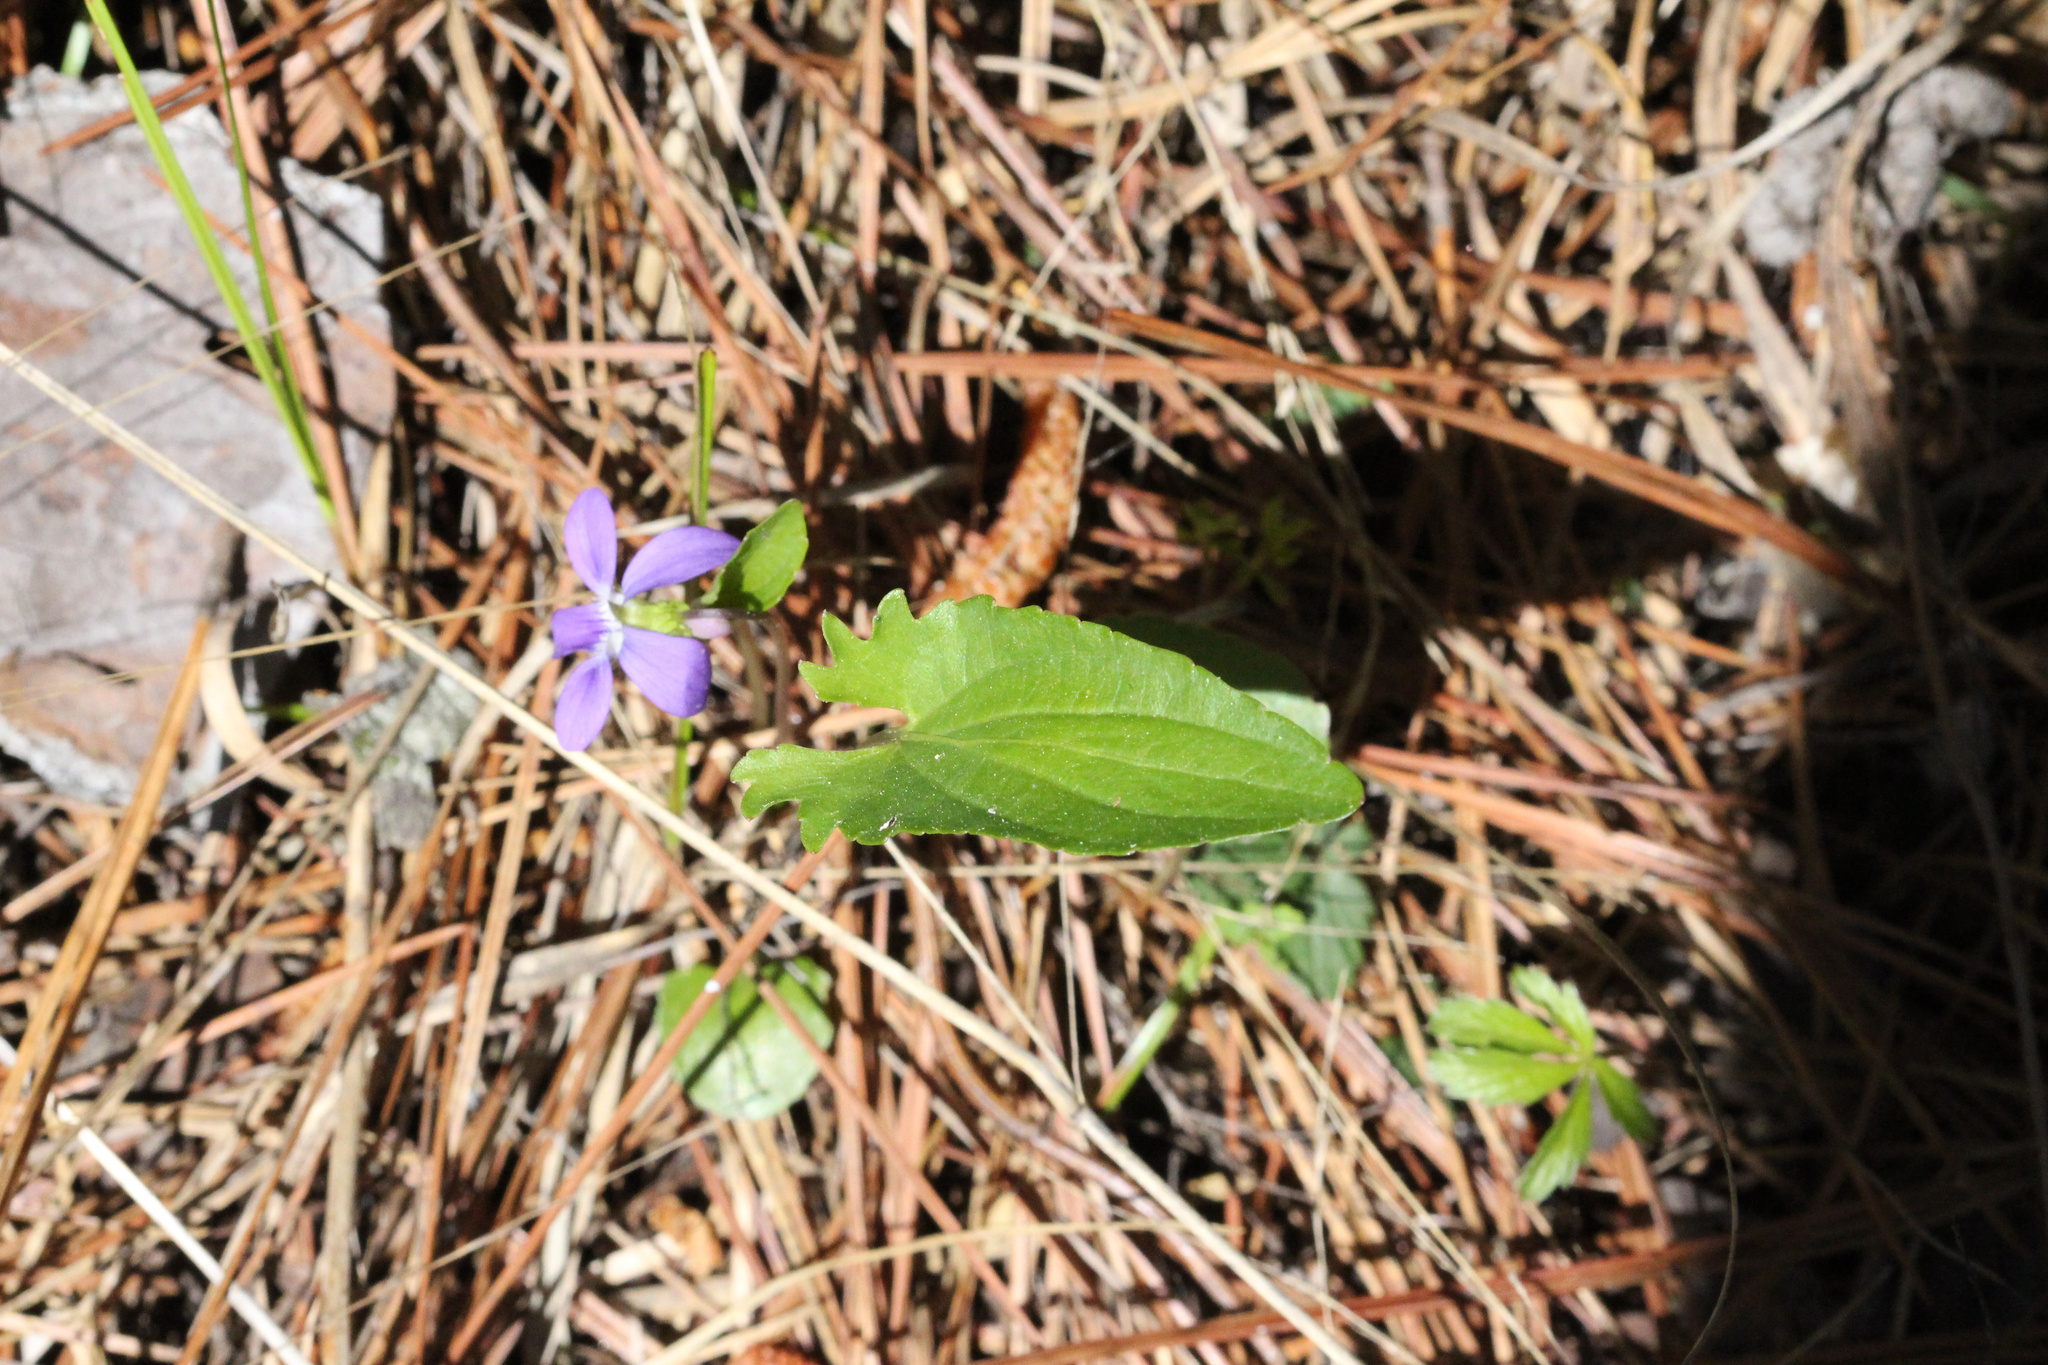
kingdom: Plantae
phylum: Tracheophyta
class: Magnoliopsida
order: Malpighiales
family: Violaceae
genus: Viola
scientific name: Viola sagittata
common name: Arrowhead violet
